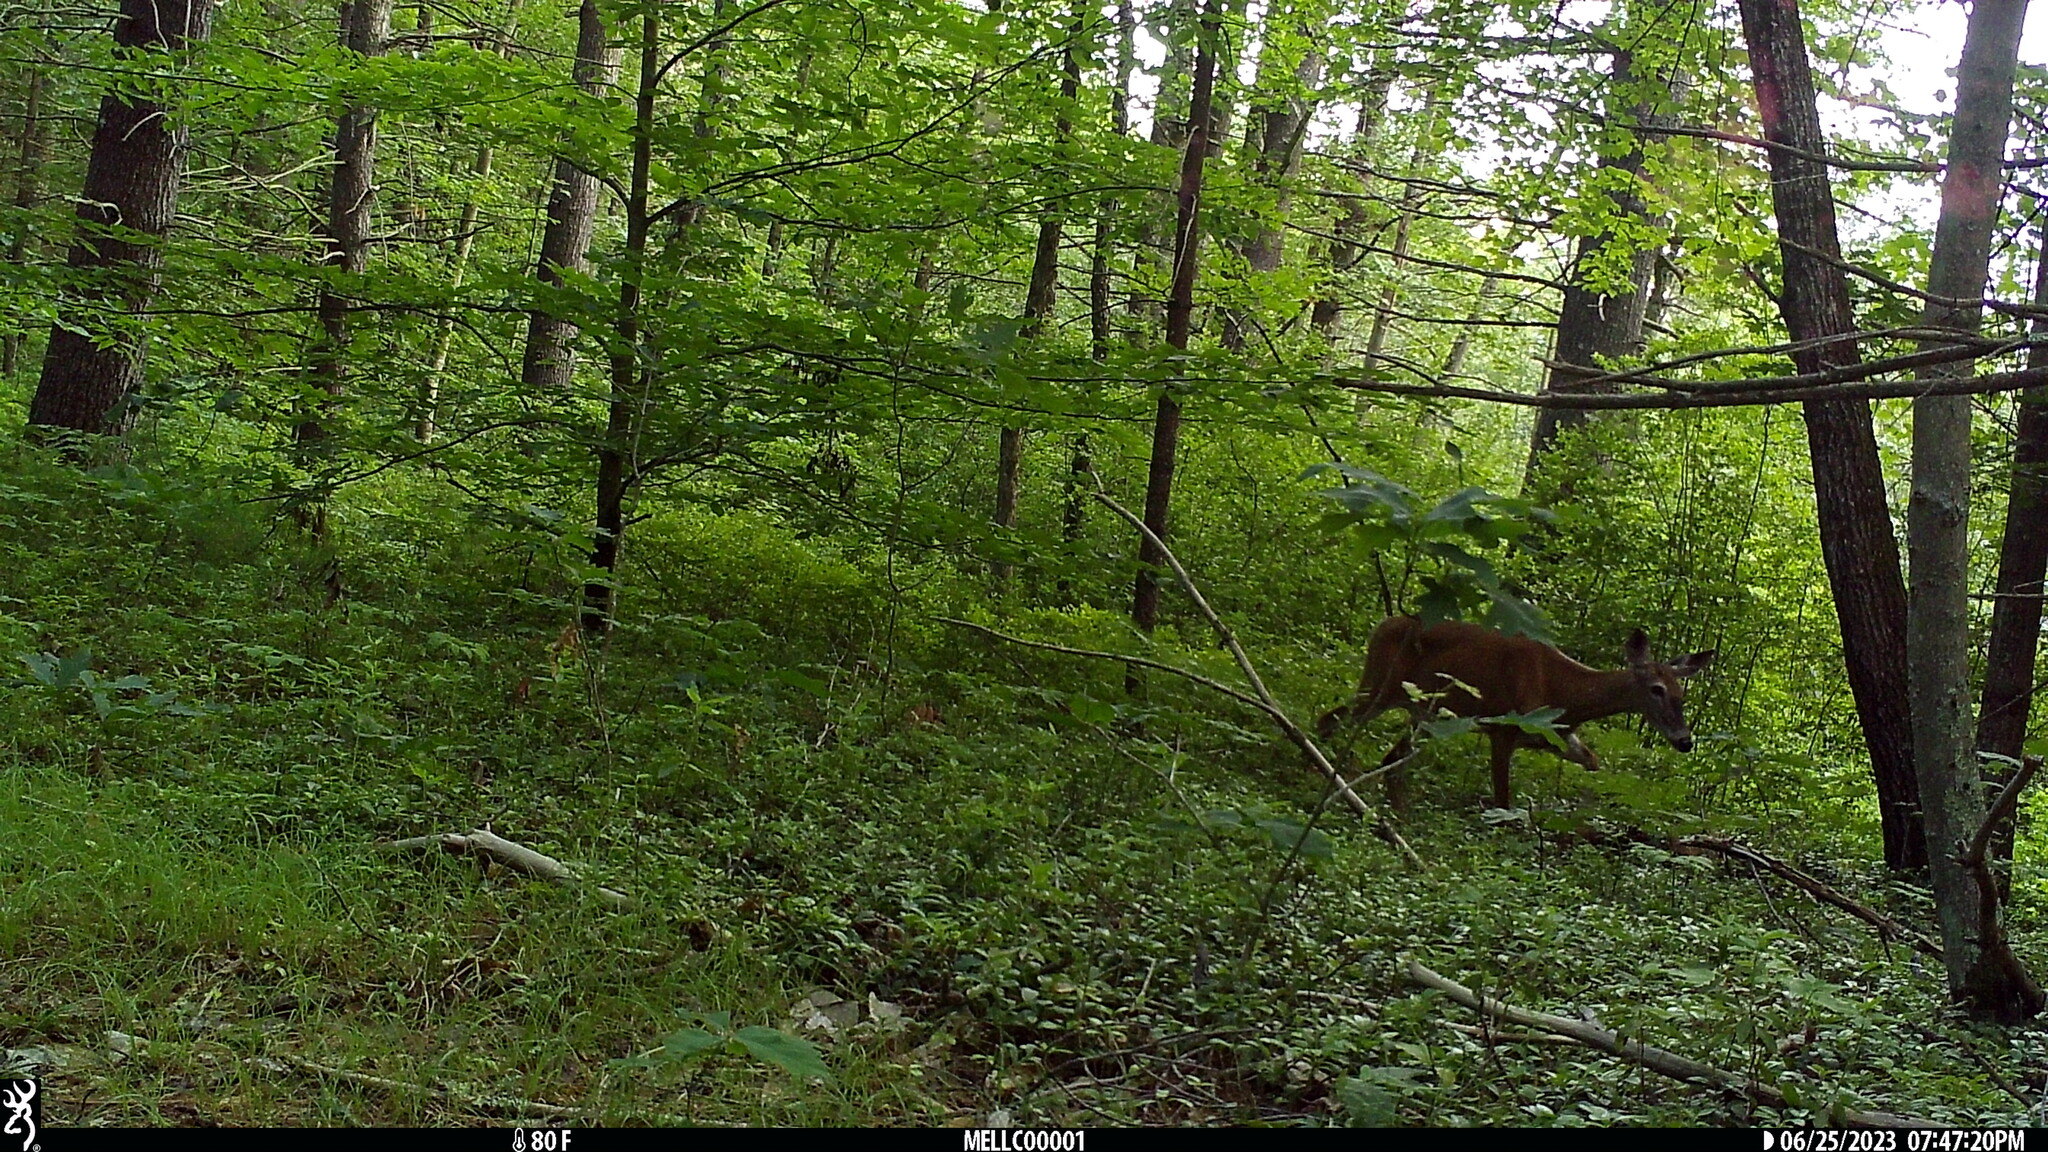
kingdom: Animalia
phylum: Chordata
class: Mammalia
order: Artiodactyla
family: Cervidae
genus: Odocoileus
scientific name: Odocoileus virginianus
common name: White-tailed deer
